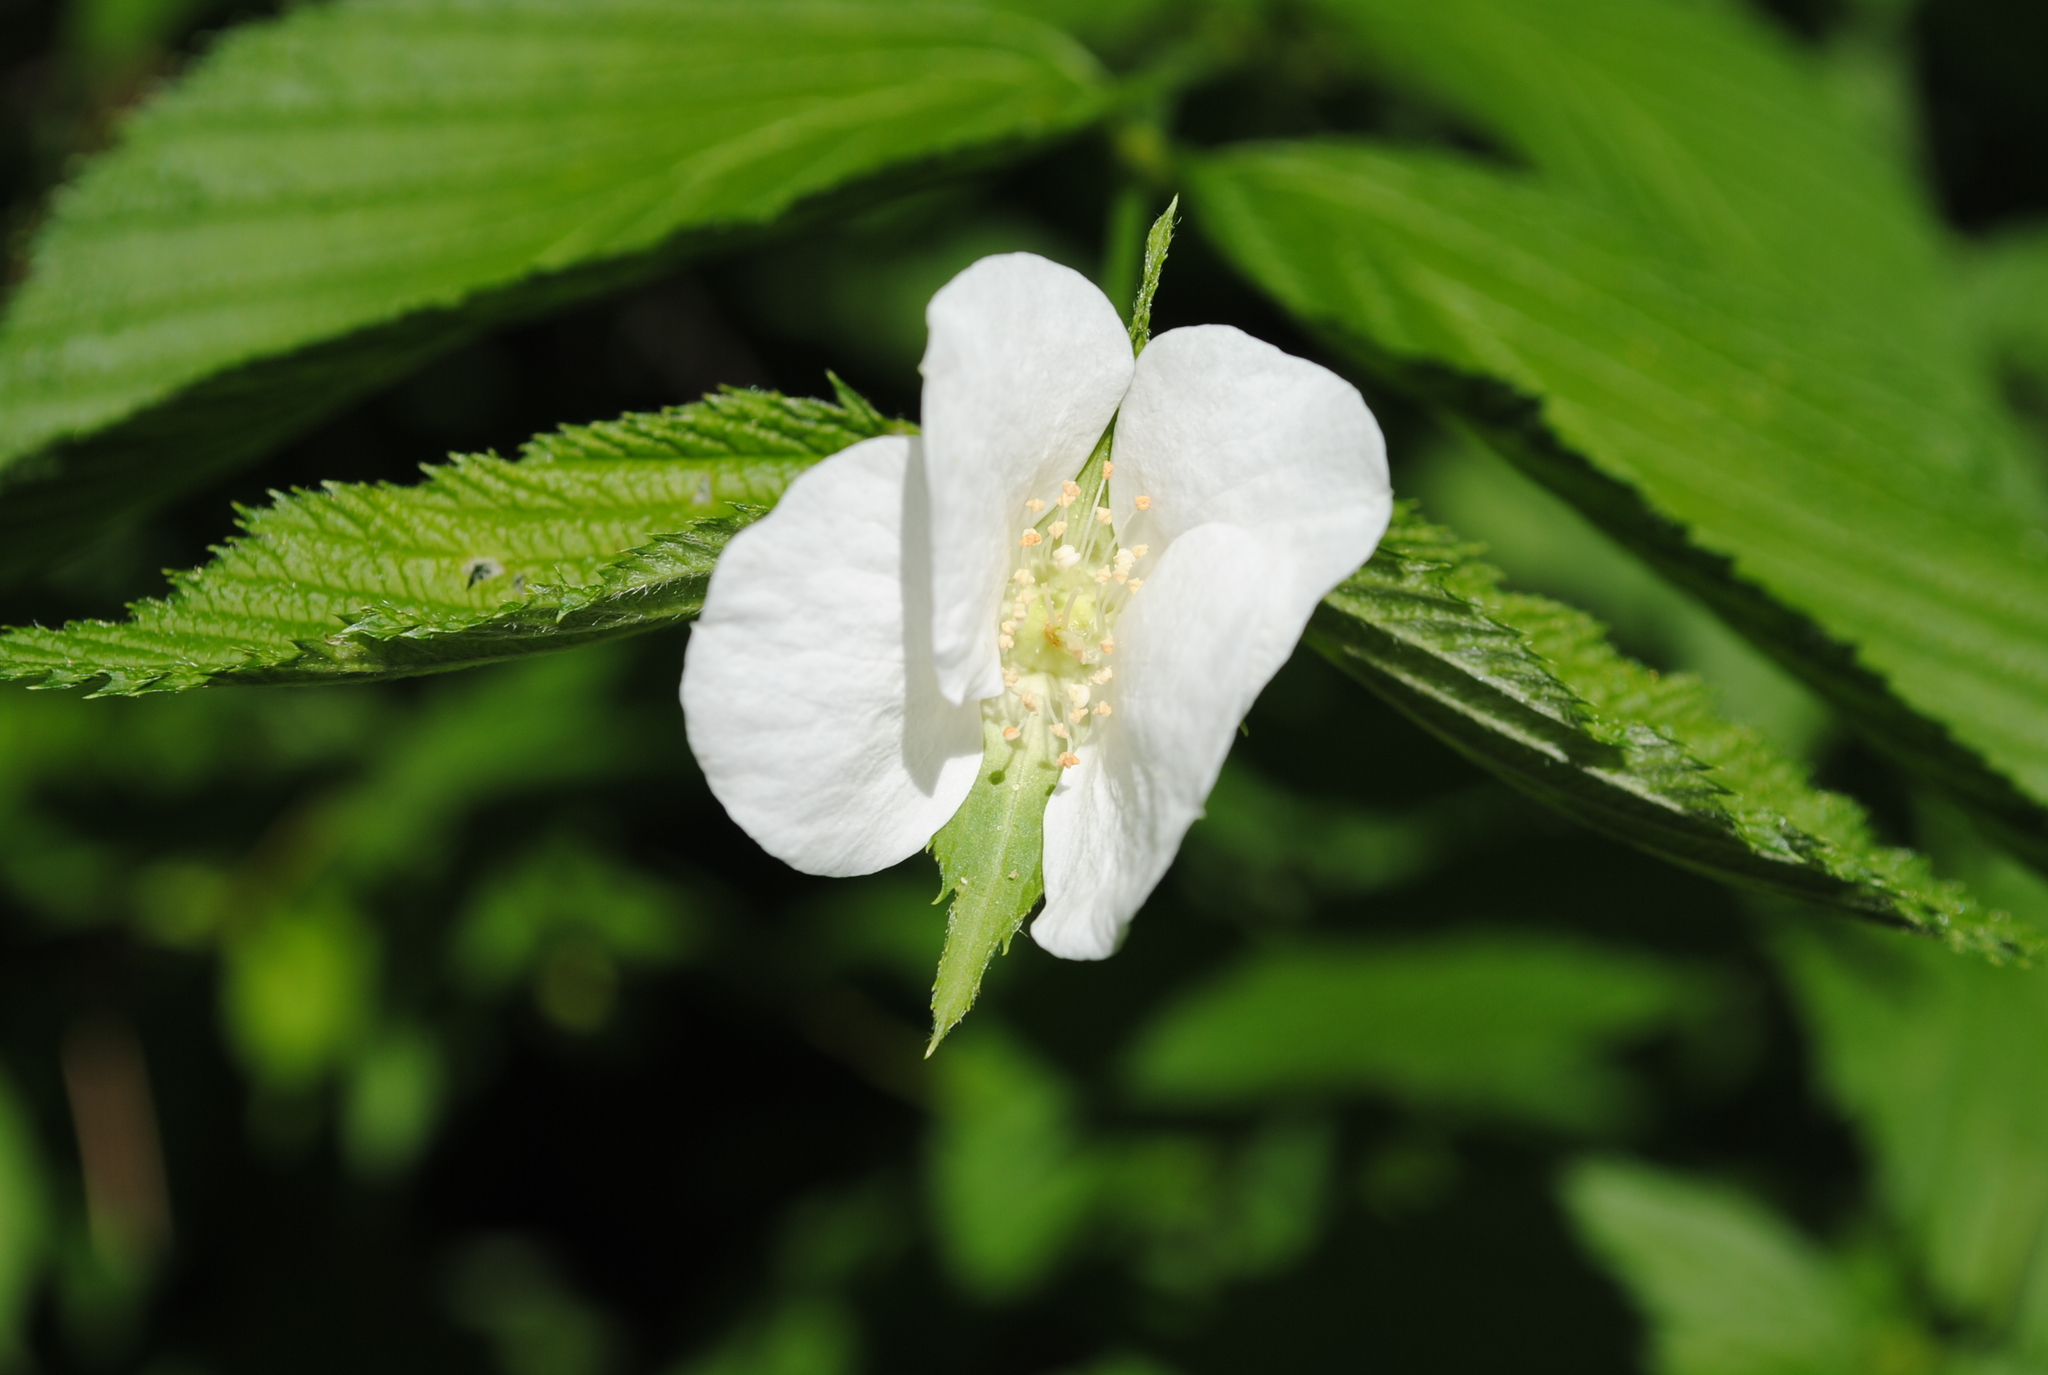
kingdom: Plantae
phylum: Tracheophyta
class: Magnoliopsida
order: Rosales
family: Rosaceae
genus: Rhodotypos
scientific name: Rhodotypos scandens
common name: Jetbead
